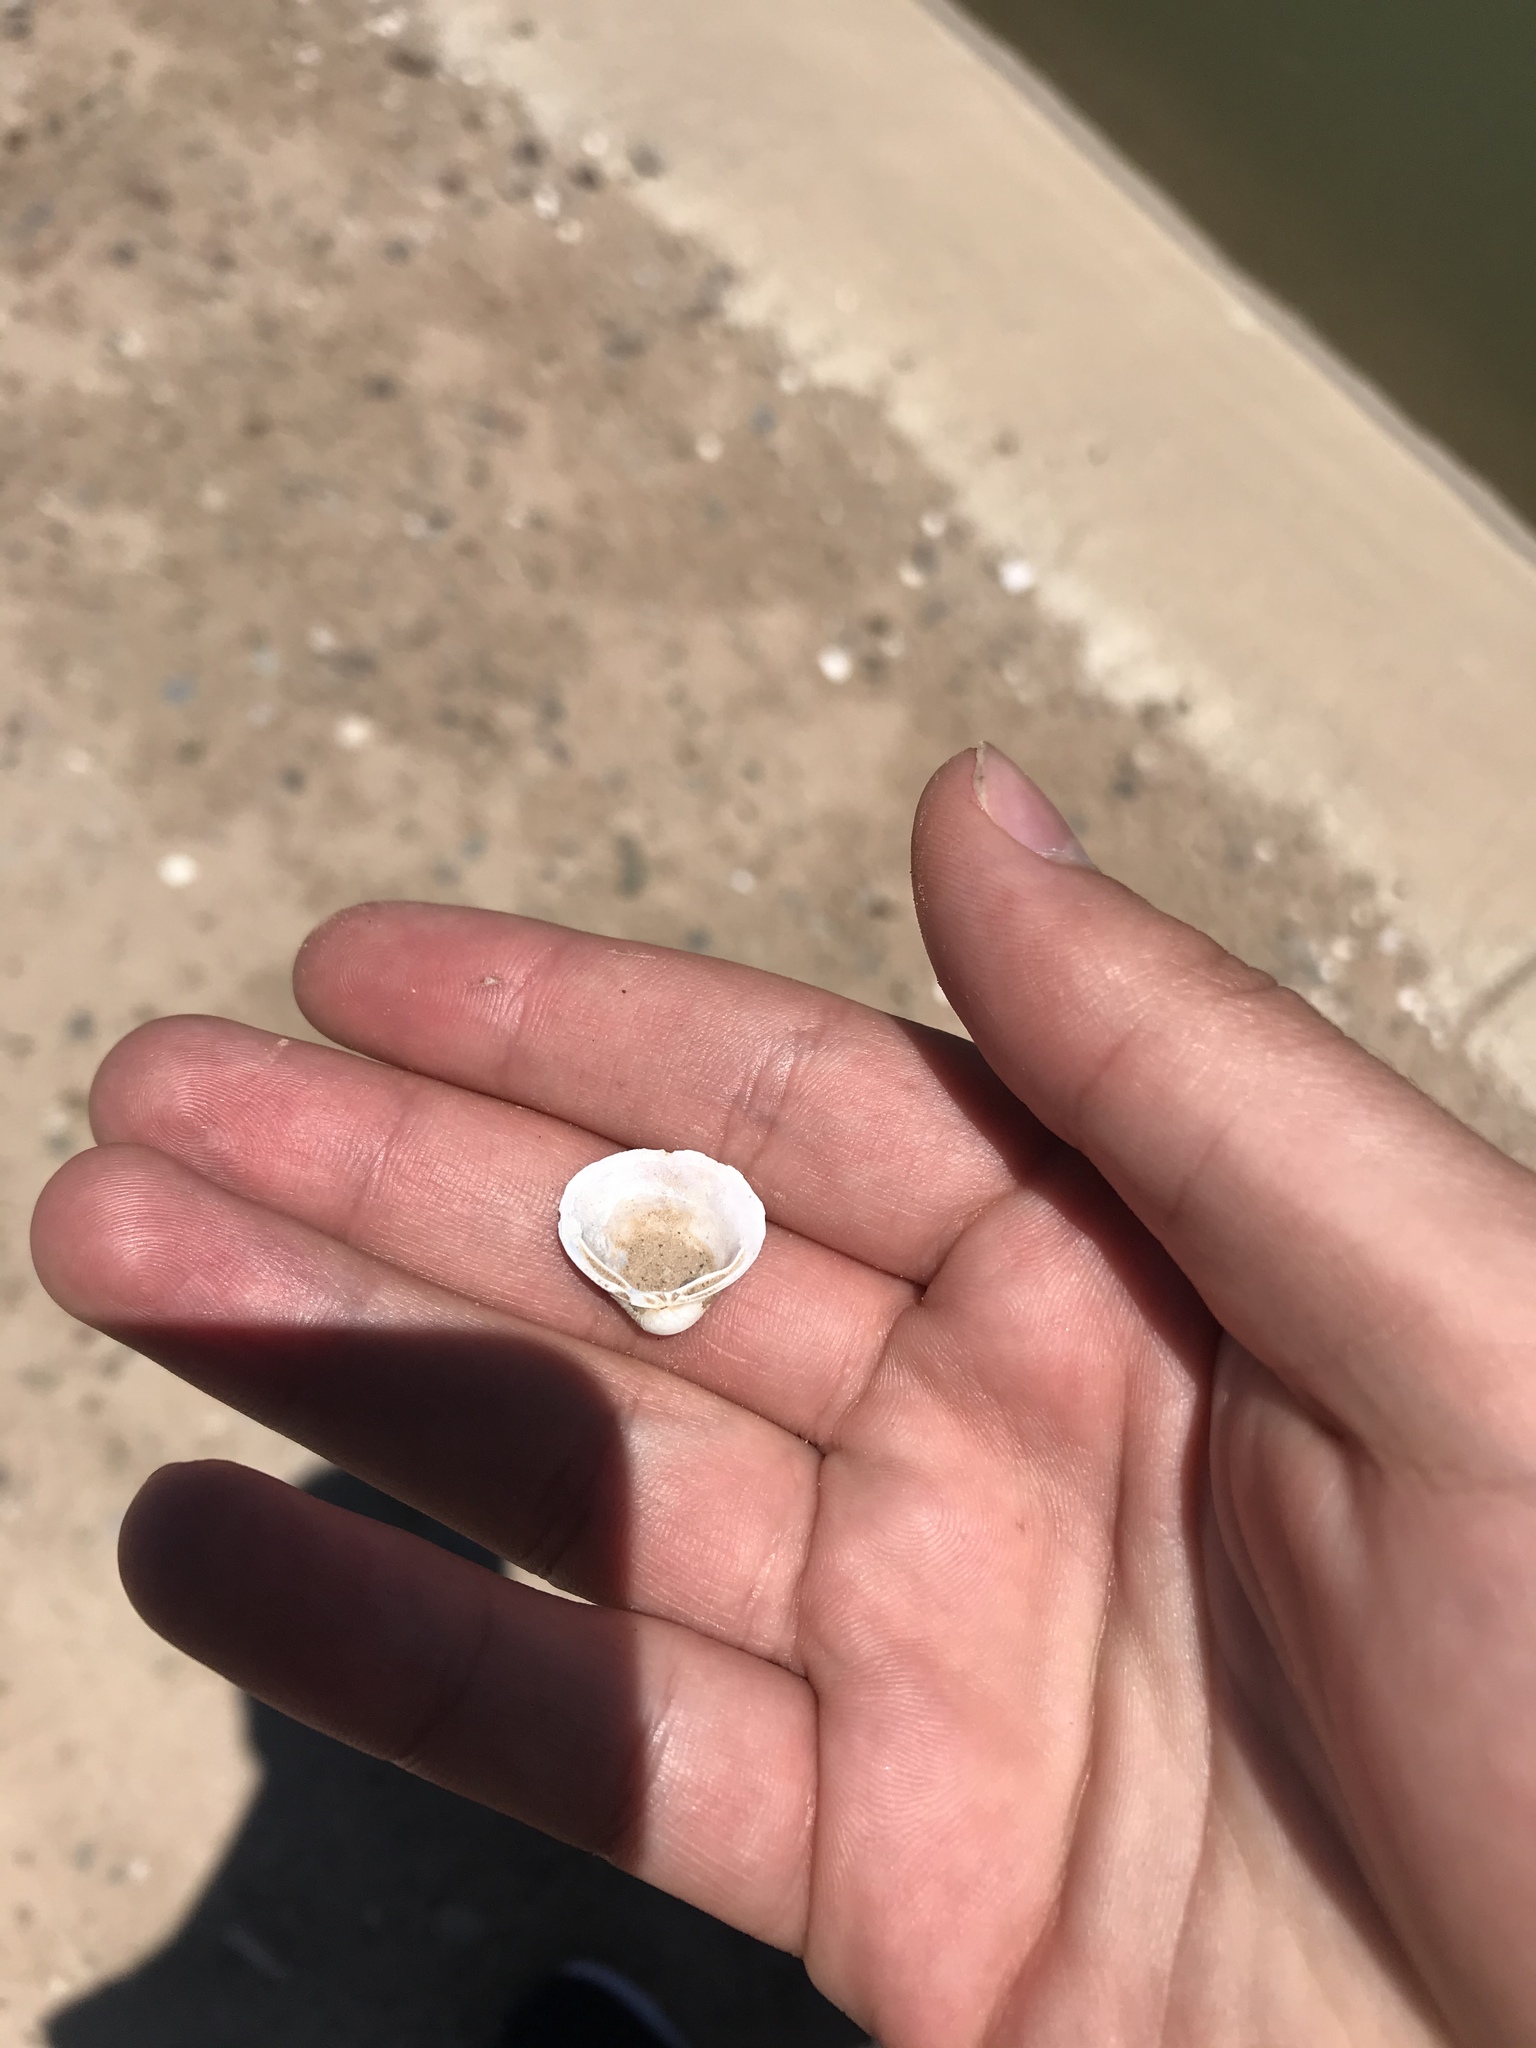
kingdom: Animalia
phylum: Mollusca
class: Bivalvia
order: Venerida
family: Cyrenidae
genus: Corbicula
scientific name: Corbicula fluminea
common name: Asian clam
